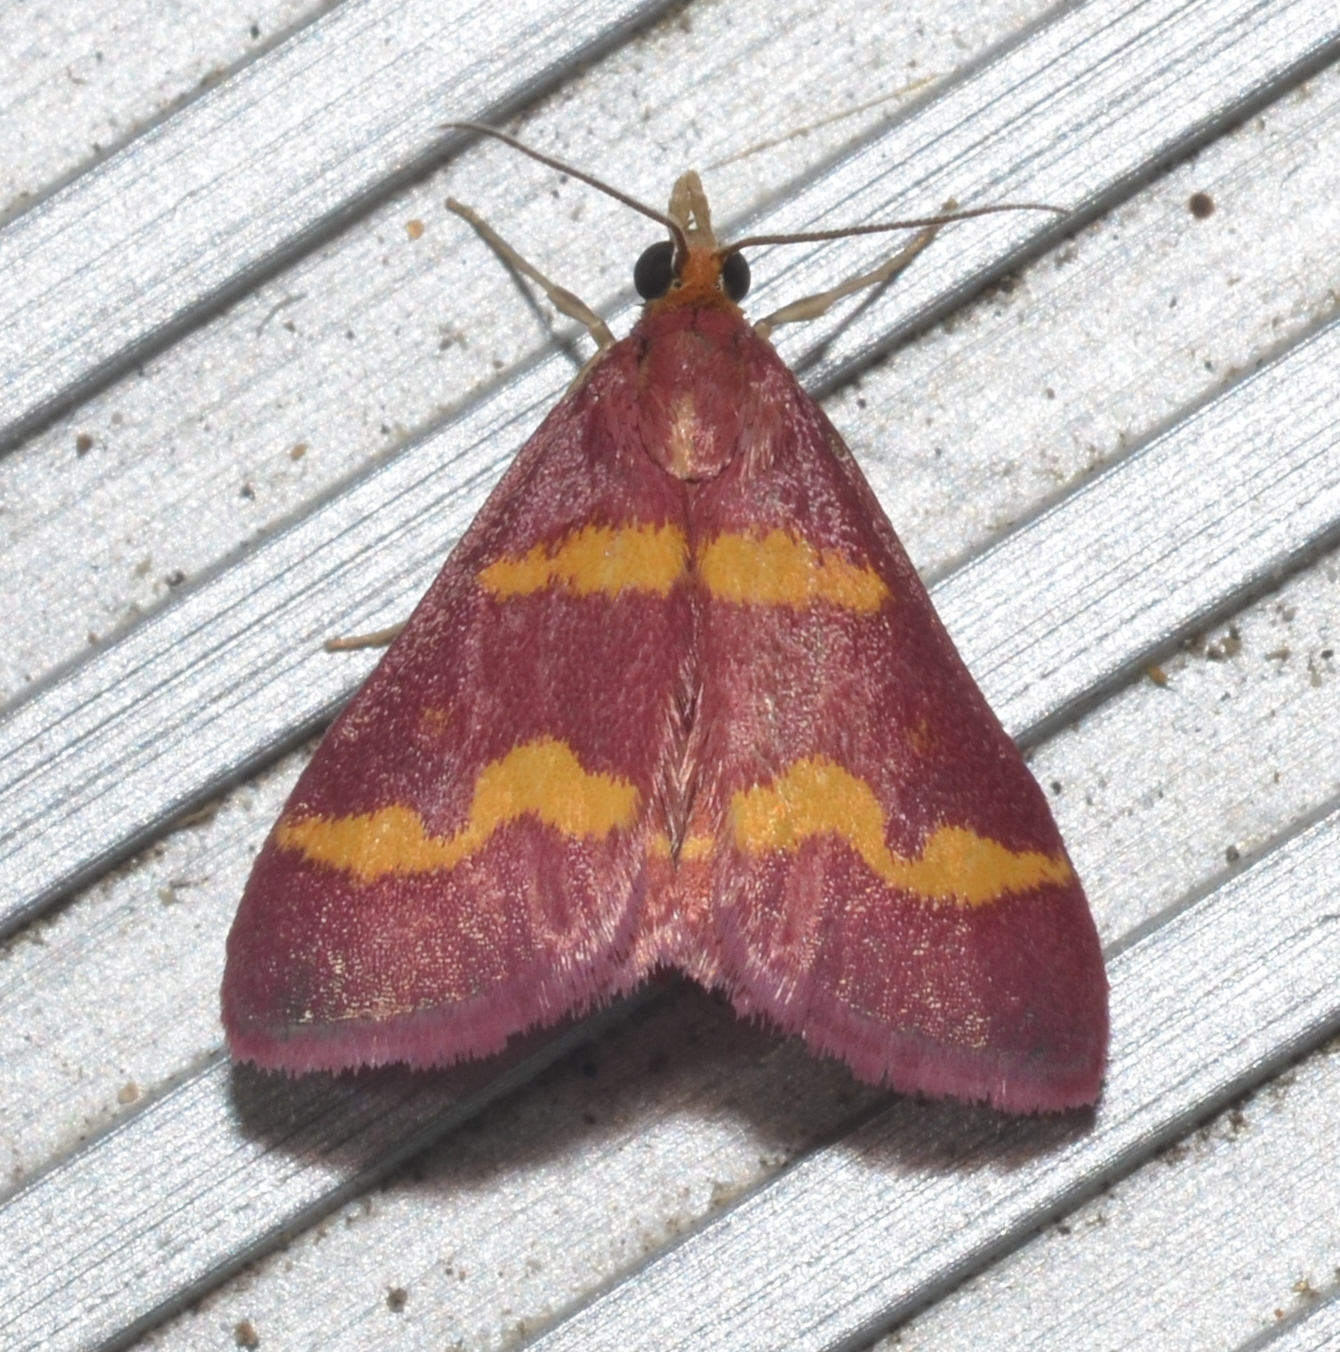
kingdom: Animalia
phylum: Arthropoda
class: Insecta
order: Lepidoptera
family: Crambidae
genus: Pyrausta
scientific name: Pyrausta tyralis
